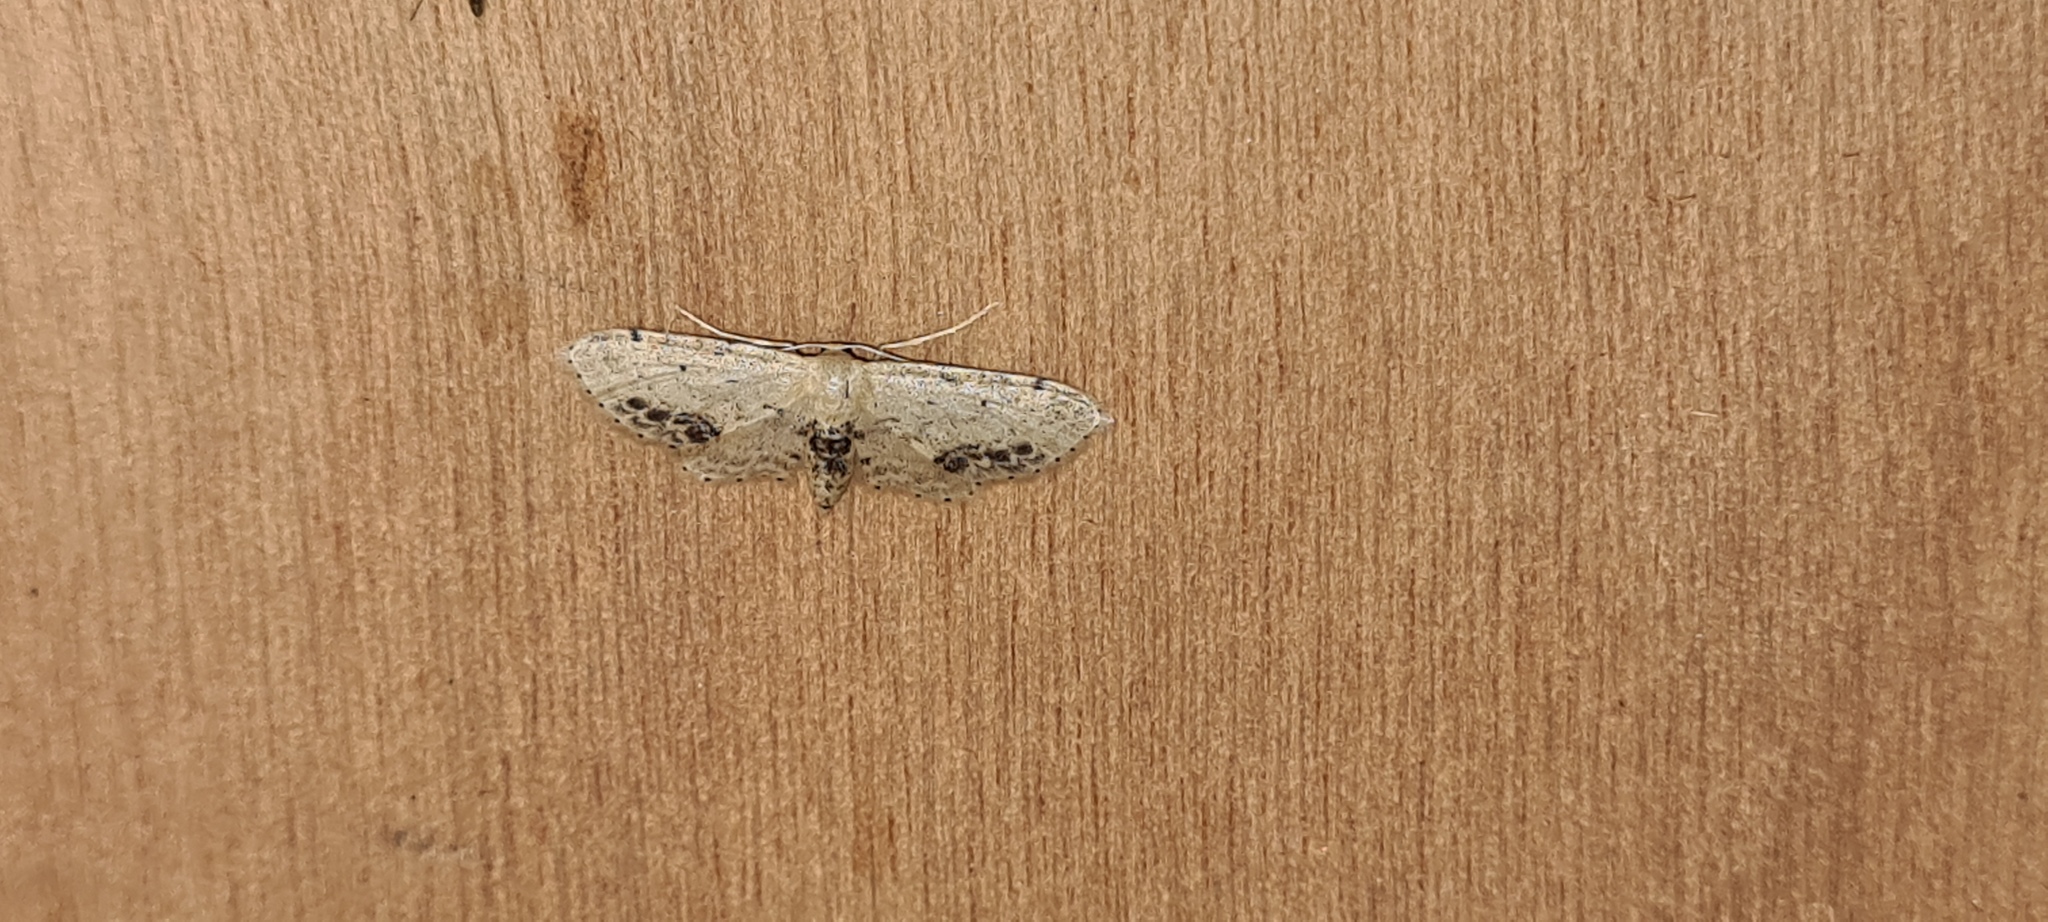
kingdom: Animalia
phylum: Arthropoda
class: Insecta
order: Lepidoptera
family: Geometridae
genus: Idaea
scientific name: Idaea dimidiata
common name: Single-dotted wave
